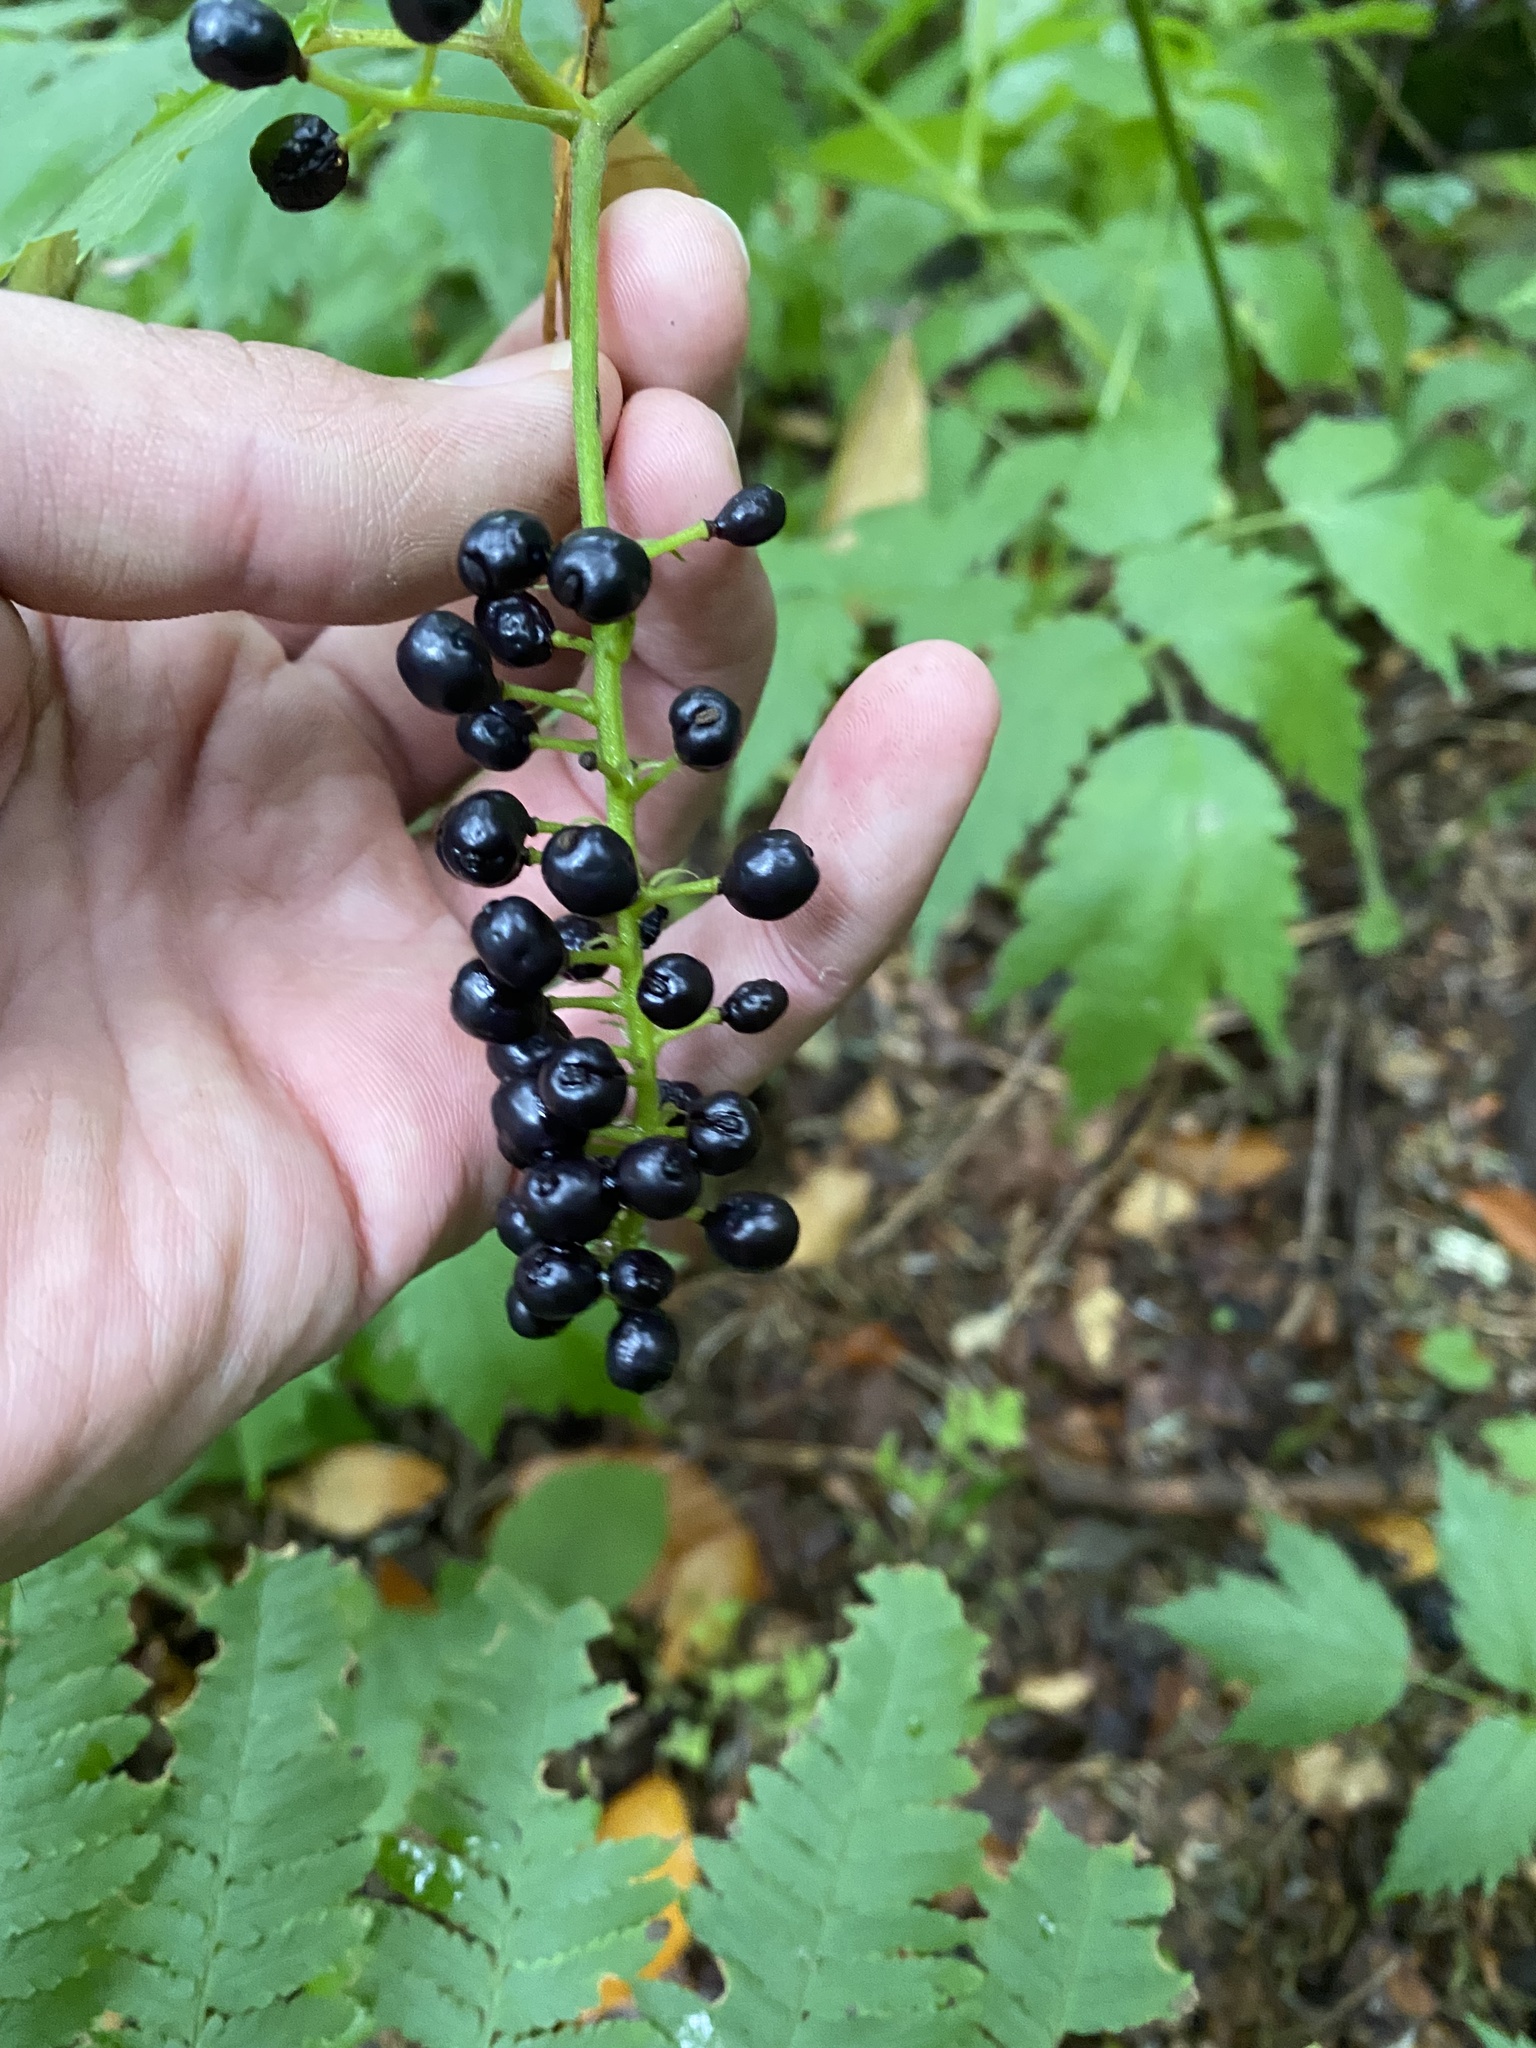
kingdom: Plantae
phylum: Tracheophyta
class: Magnoliopsida
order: Ranunculales
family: Ranunculaceae
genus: Actaea
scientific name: Actaea spicata
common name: Baneberry
